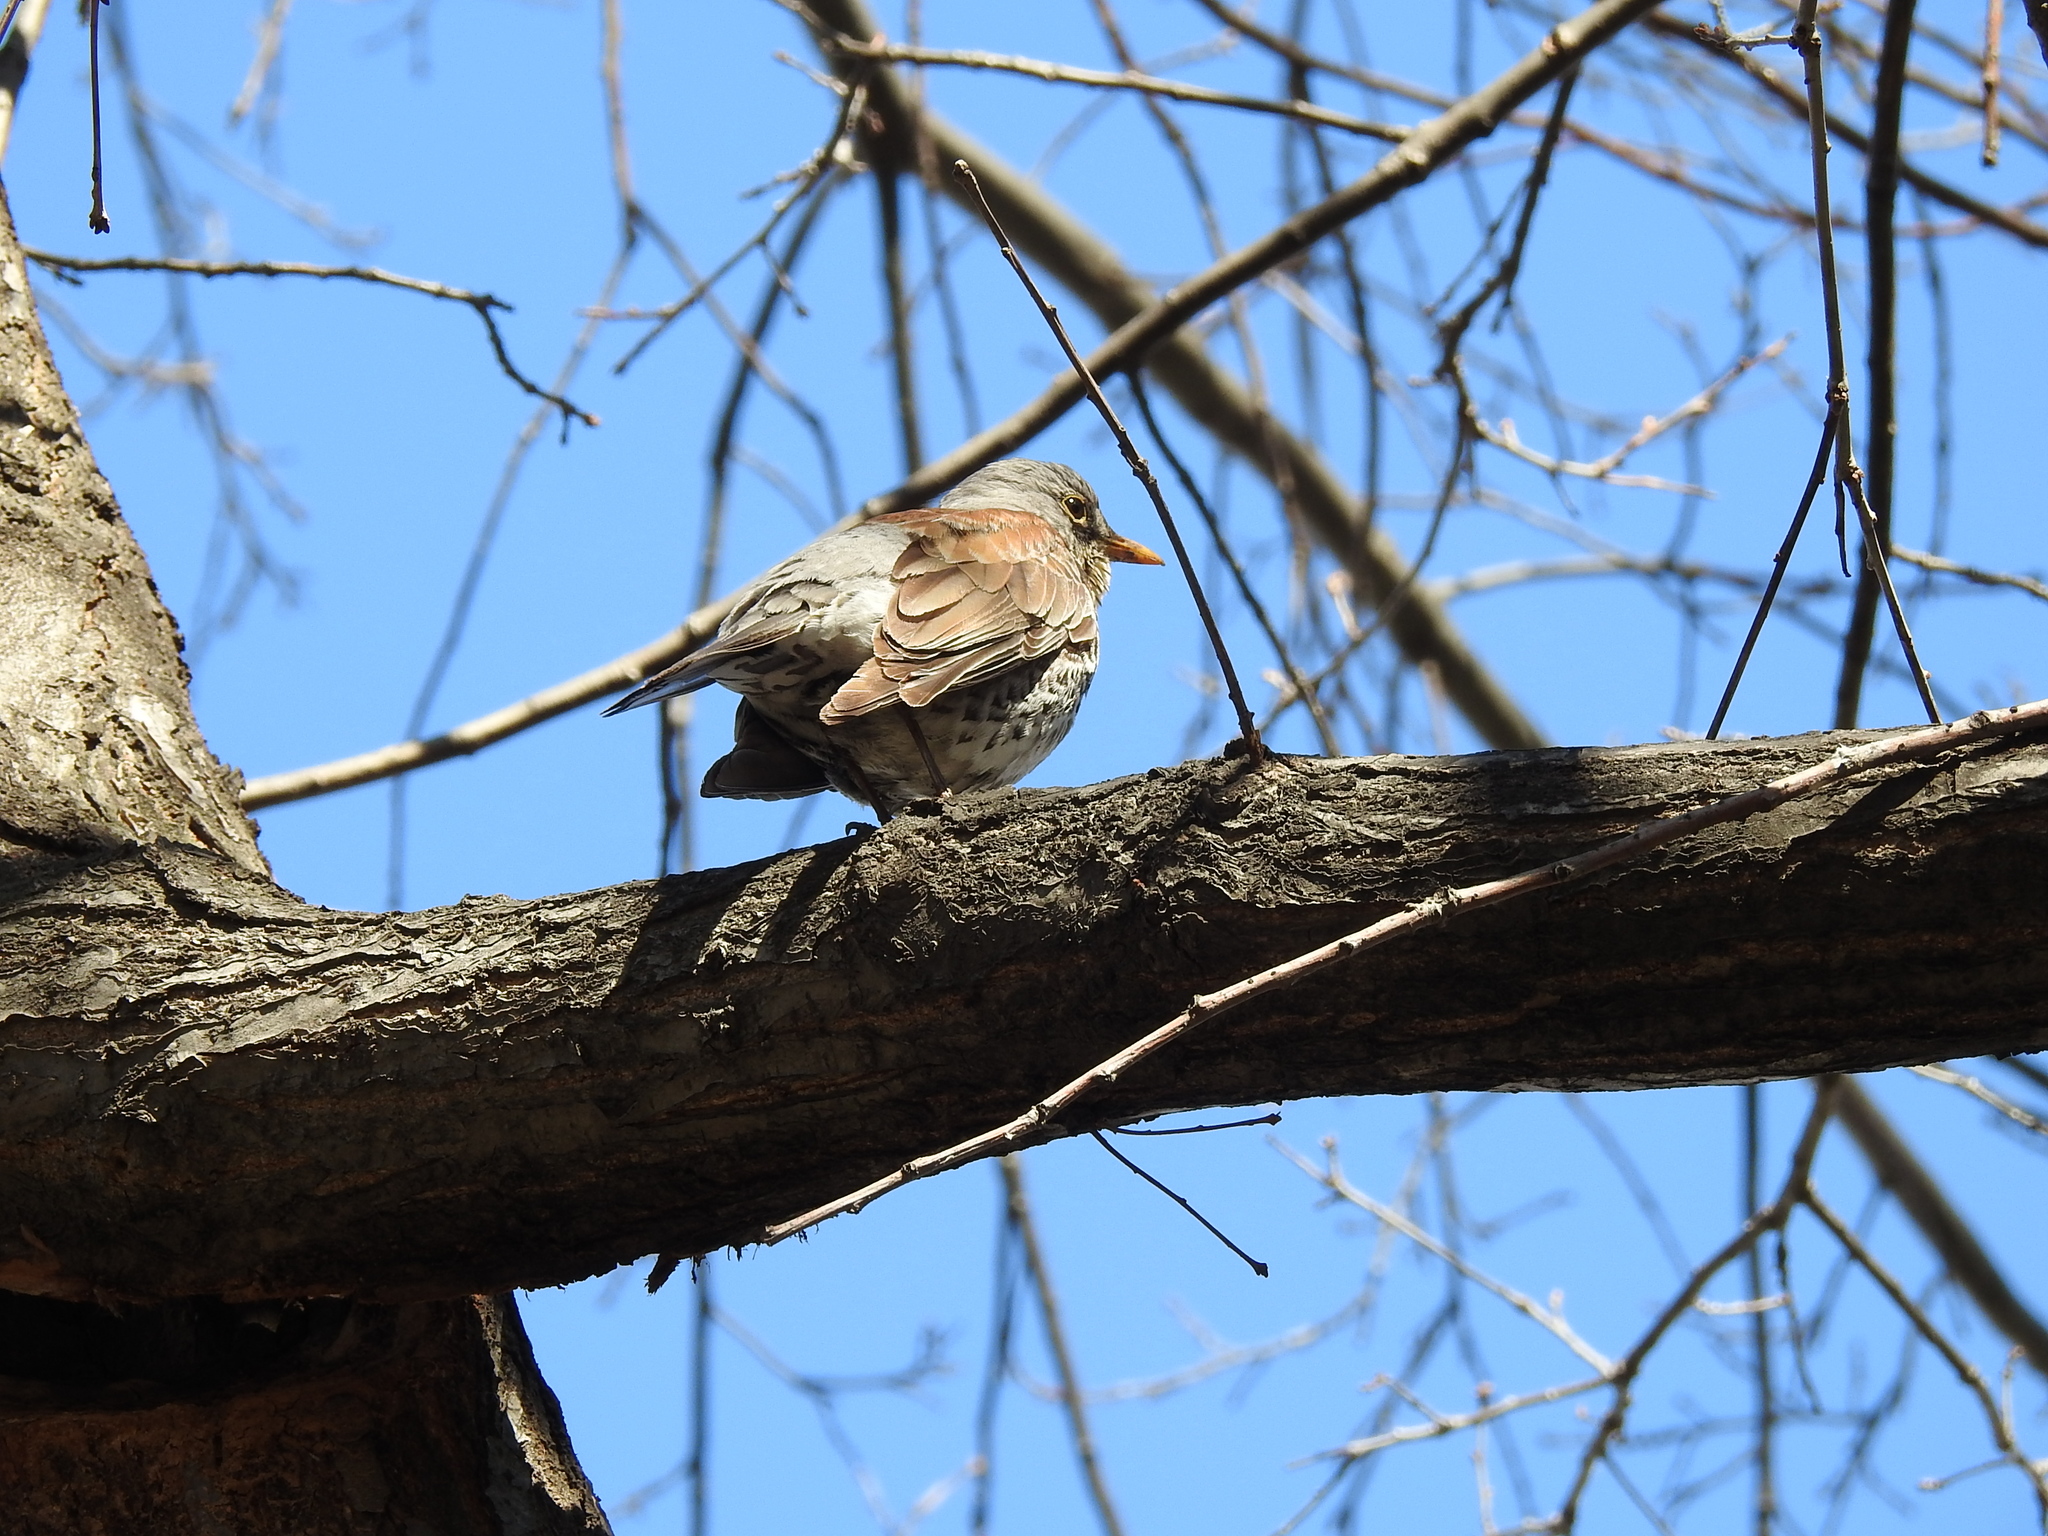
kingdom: Animalia
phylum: Chordata
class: Aves
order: Passeriformes
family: Turdidae
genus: Turdus
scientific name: Turdus pilaris
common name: Fieldfare
